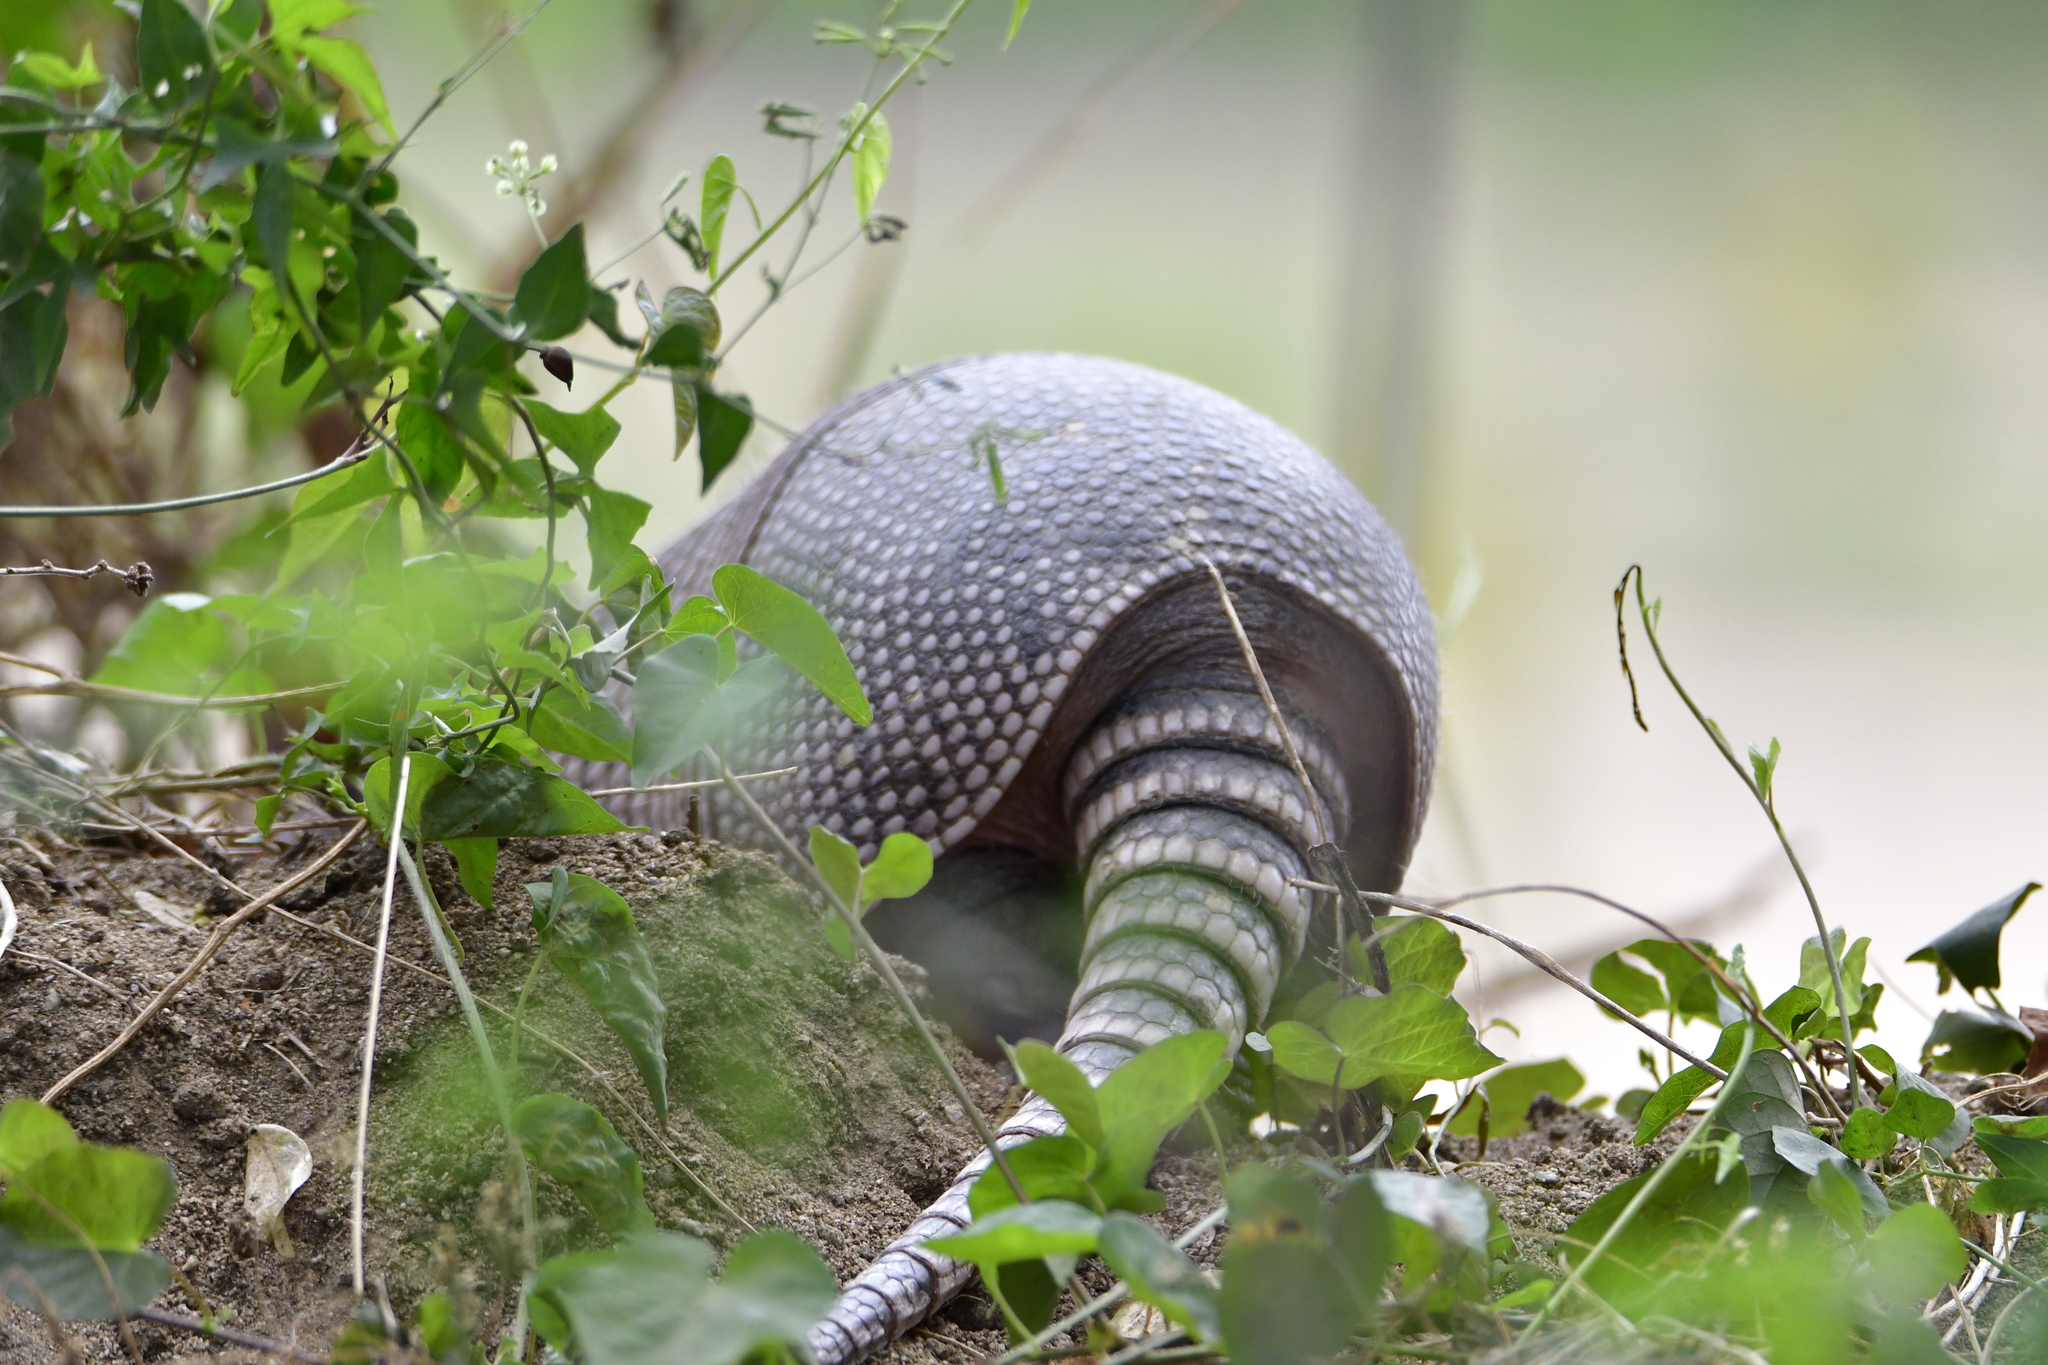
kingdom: Animalia
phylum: Chordata
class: Mammalia
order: Cingulata
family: Dasypodidae
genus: Dasypus
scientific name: Dasypus novemcinctus
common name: Nine-banded armadillo
